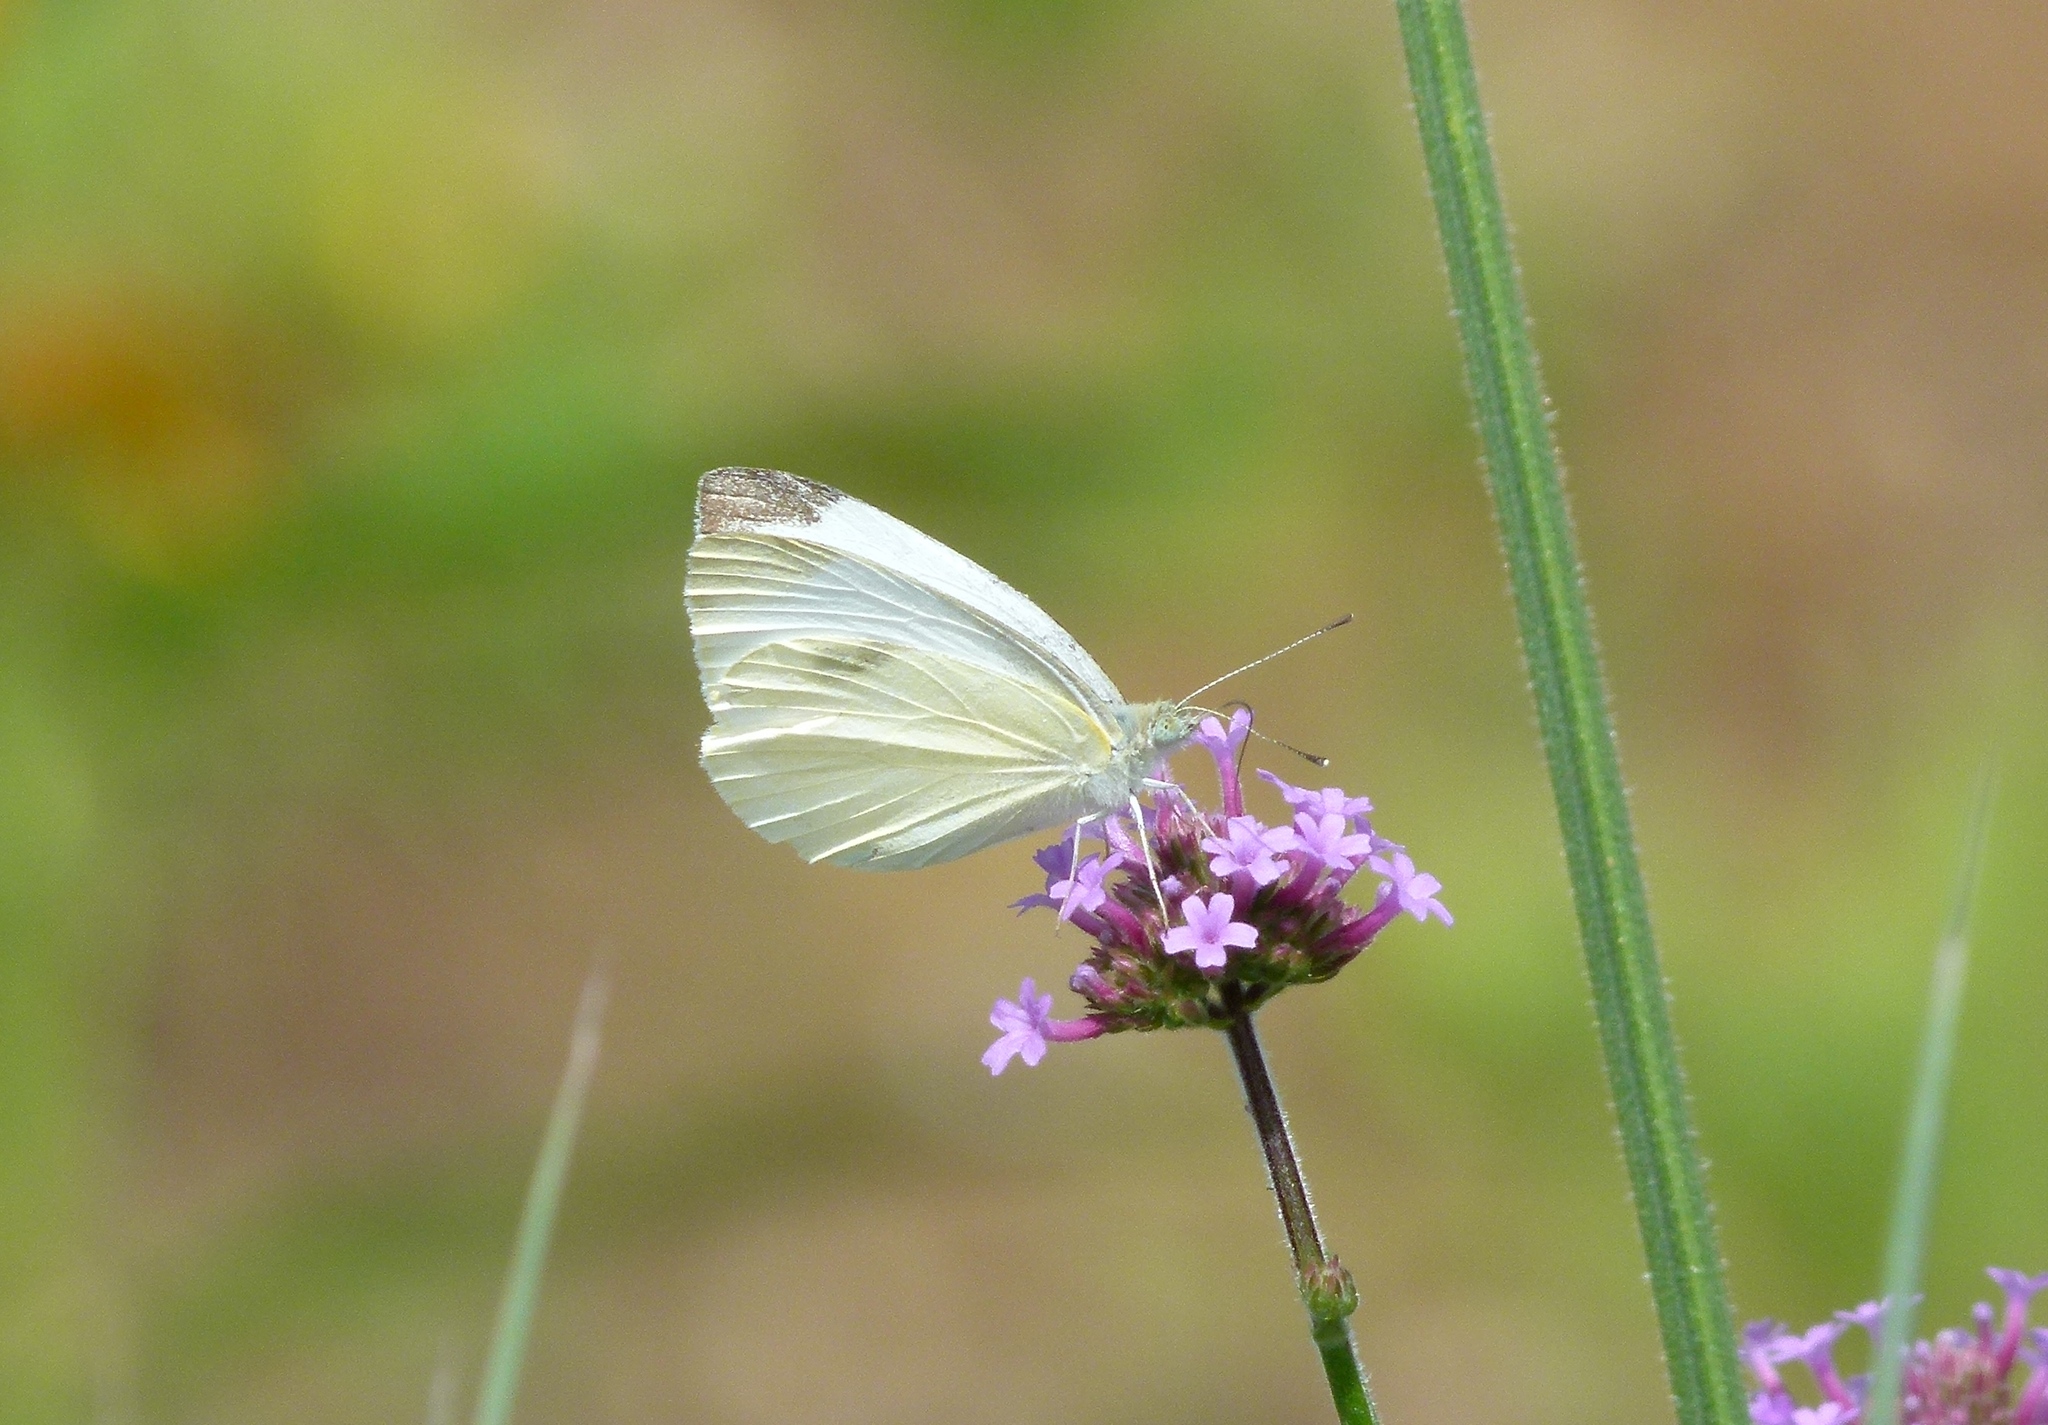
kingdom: Animalia
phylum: Arthropoda
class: Insecta
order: Lepidoptera
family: Pieridae
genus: Pieris
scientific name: Pieris rapae
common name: Small white
